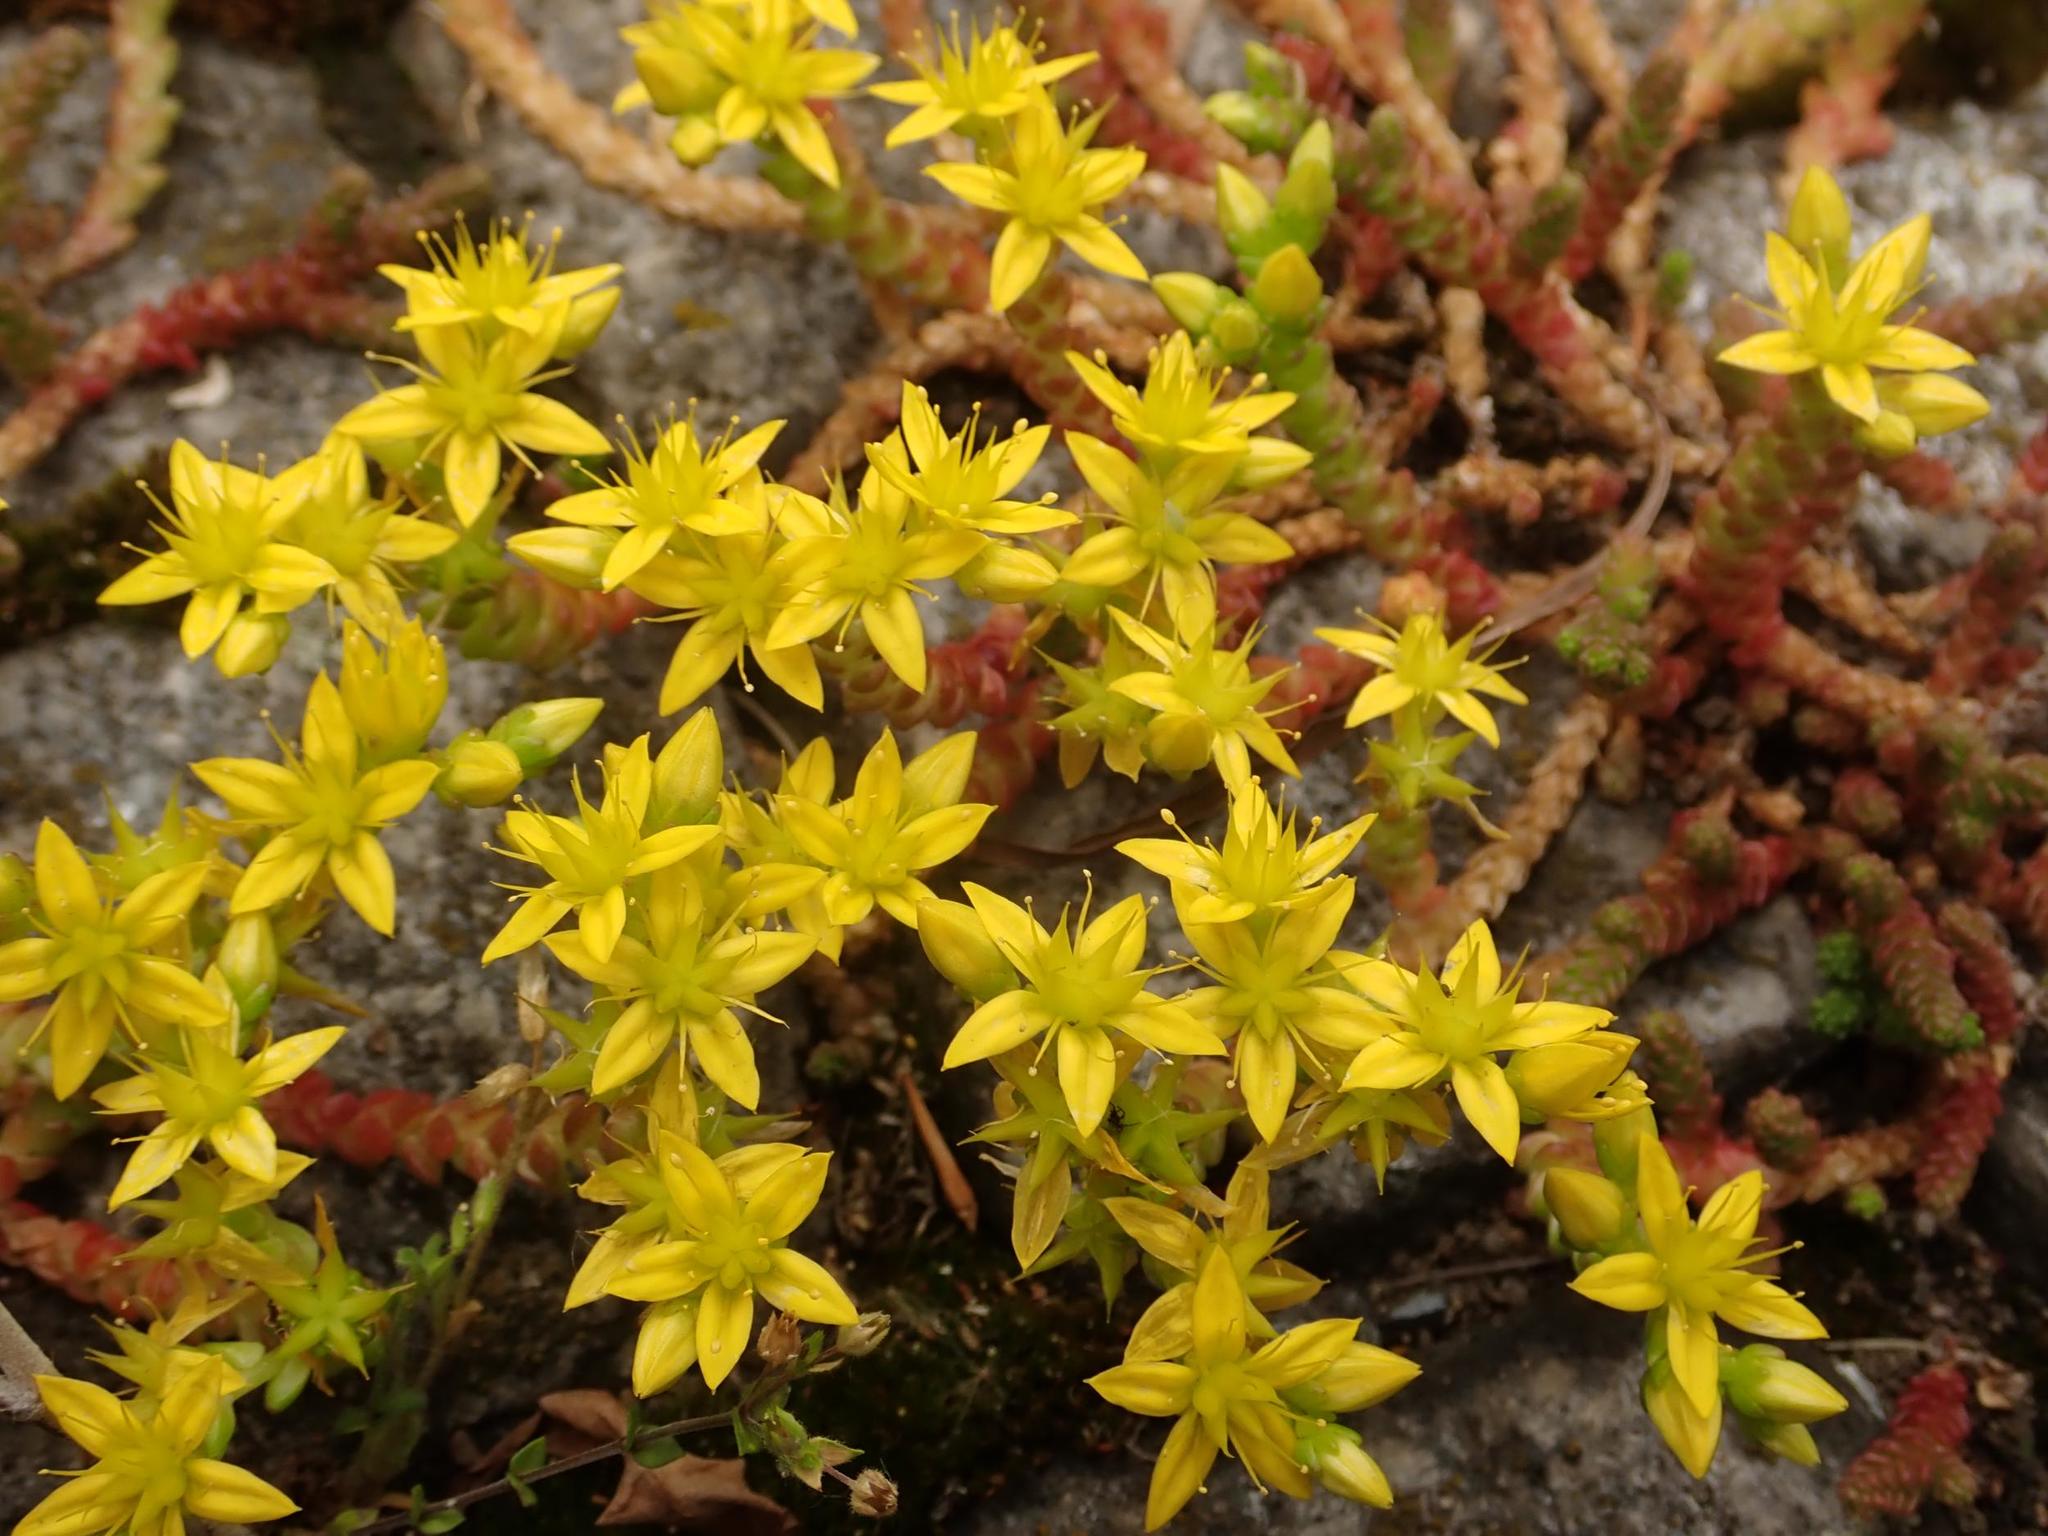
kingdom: Plantae
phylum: Tracheophyta
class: Magnoliopsida
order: Saxifragales
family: Crassulaceae
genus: Sedum
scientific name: Sedum acre
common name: Biting stonecrop
